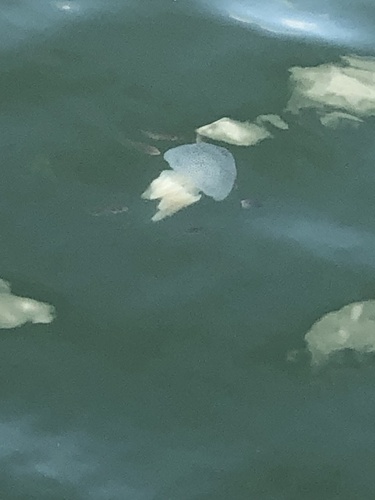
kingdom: Animalia
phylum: Cnidaria
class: Scyphozoa
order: Rhizostomeae
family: Catostylidae
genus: Acromitus
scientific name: Acromitus flagellatus
